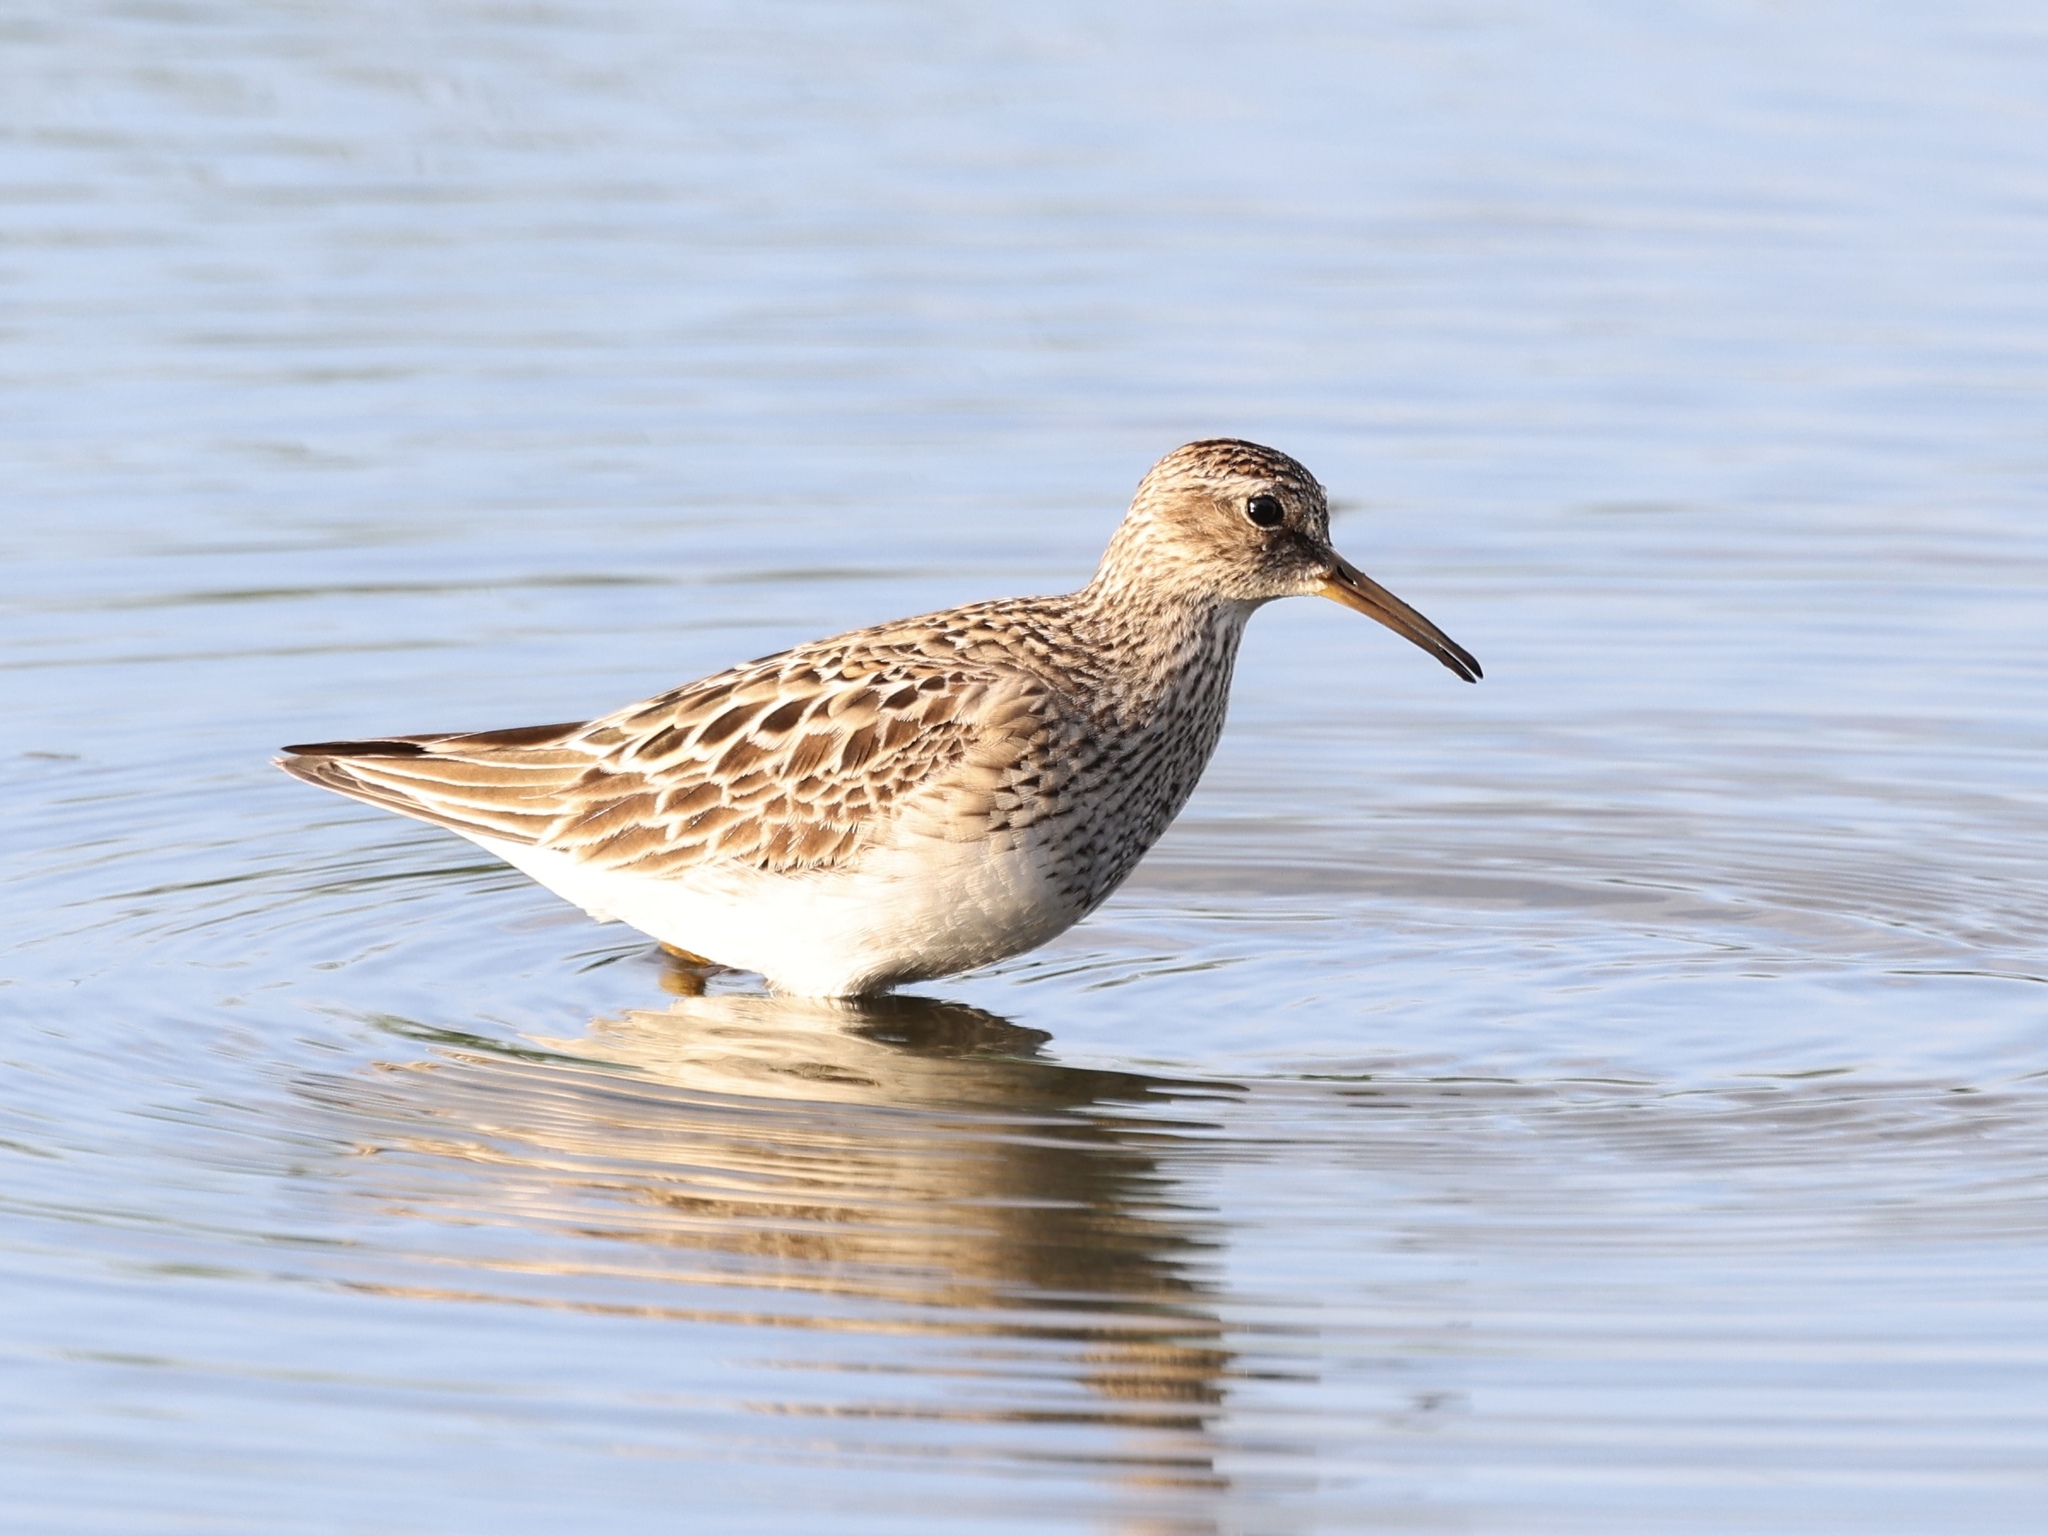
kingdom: Animalia
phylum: Chordata
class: Aves
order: Charadriiformes
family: Scolopacidae
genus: Calidris
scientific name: Calidris melanotos
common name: Pectoral sandpiper
